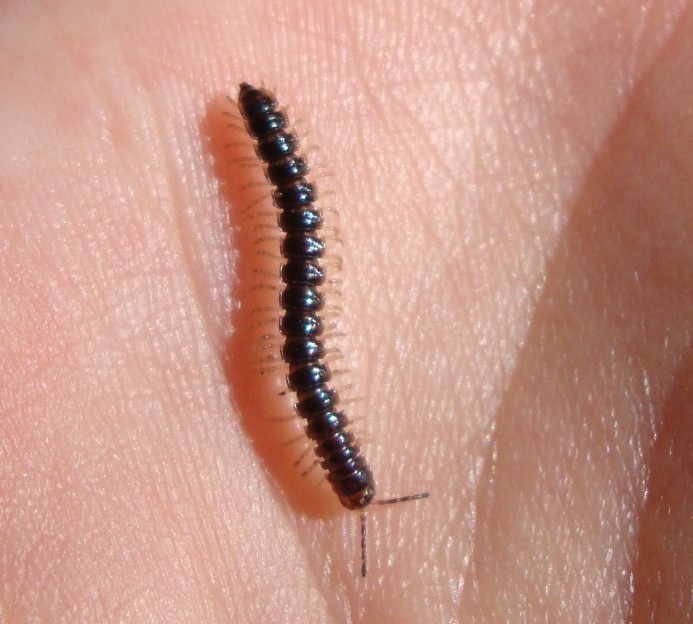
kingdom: Animalia
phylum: Arthropoda
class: Diplopoda
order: Polydesmida
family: Paradoxosomatidae
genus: Oxidus
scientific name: Oxidus gracilis
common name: Greenhouse millipede
